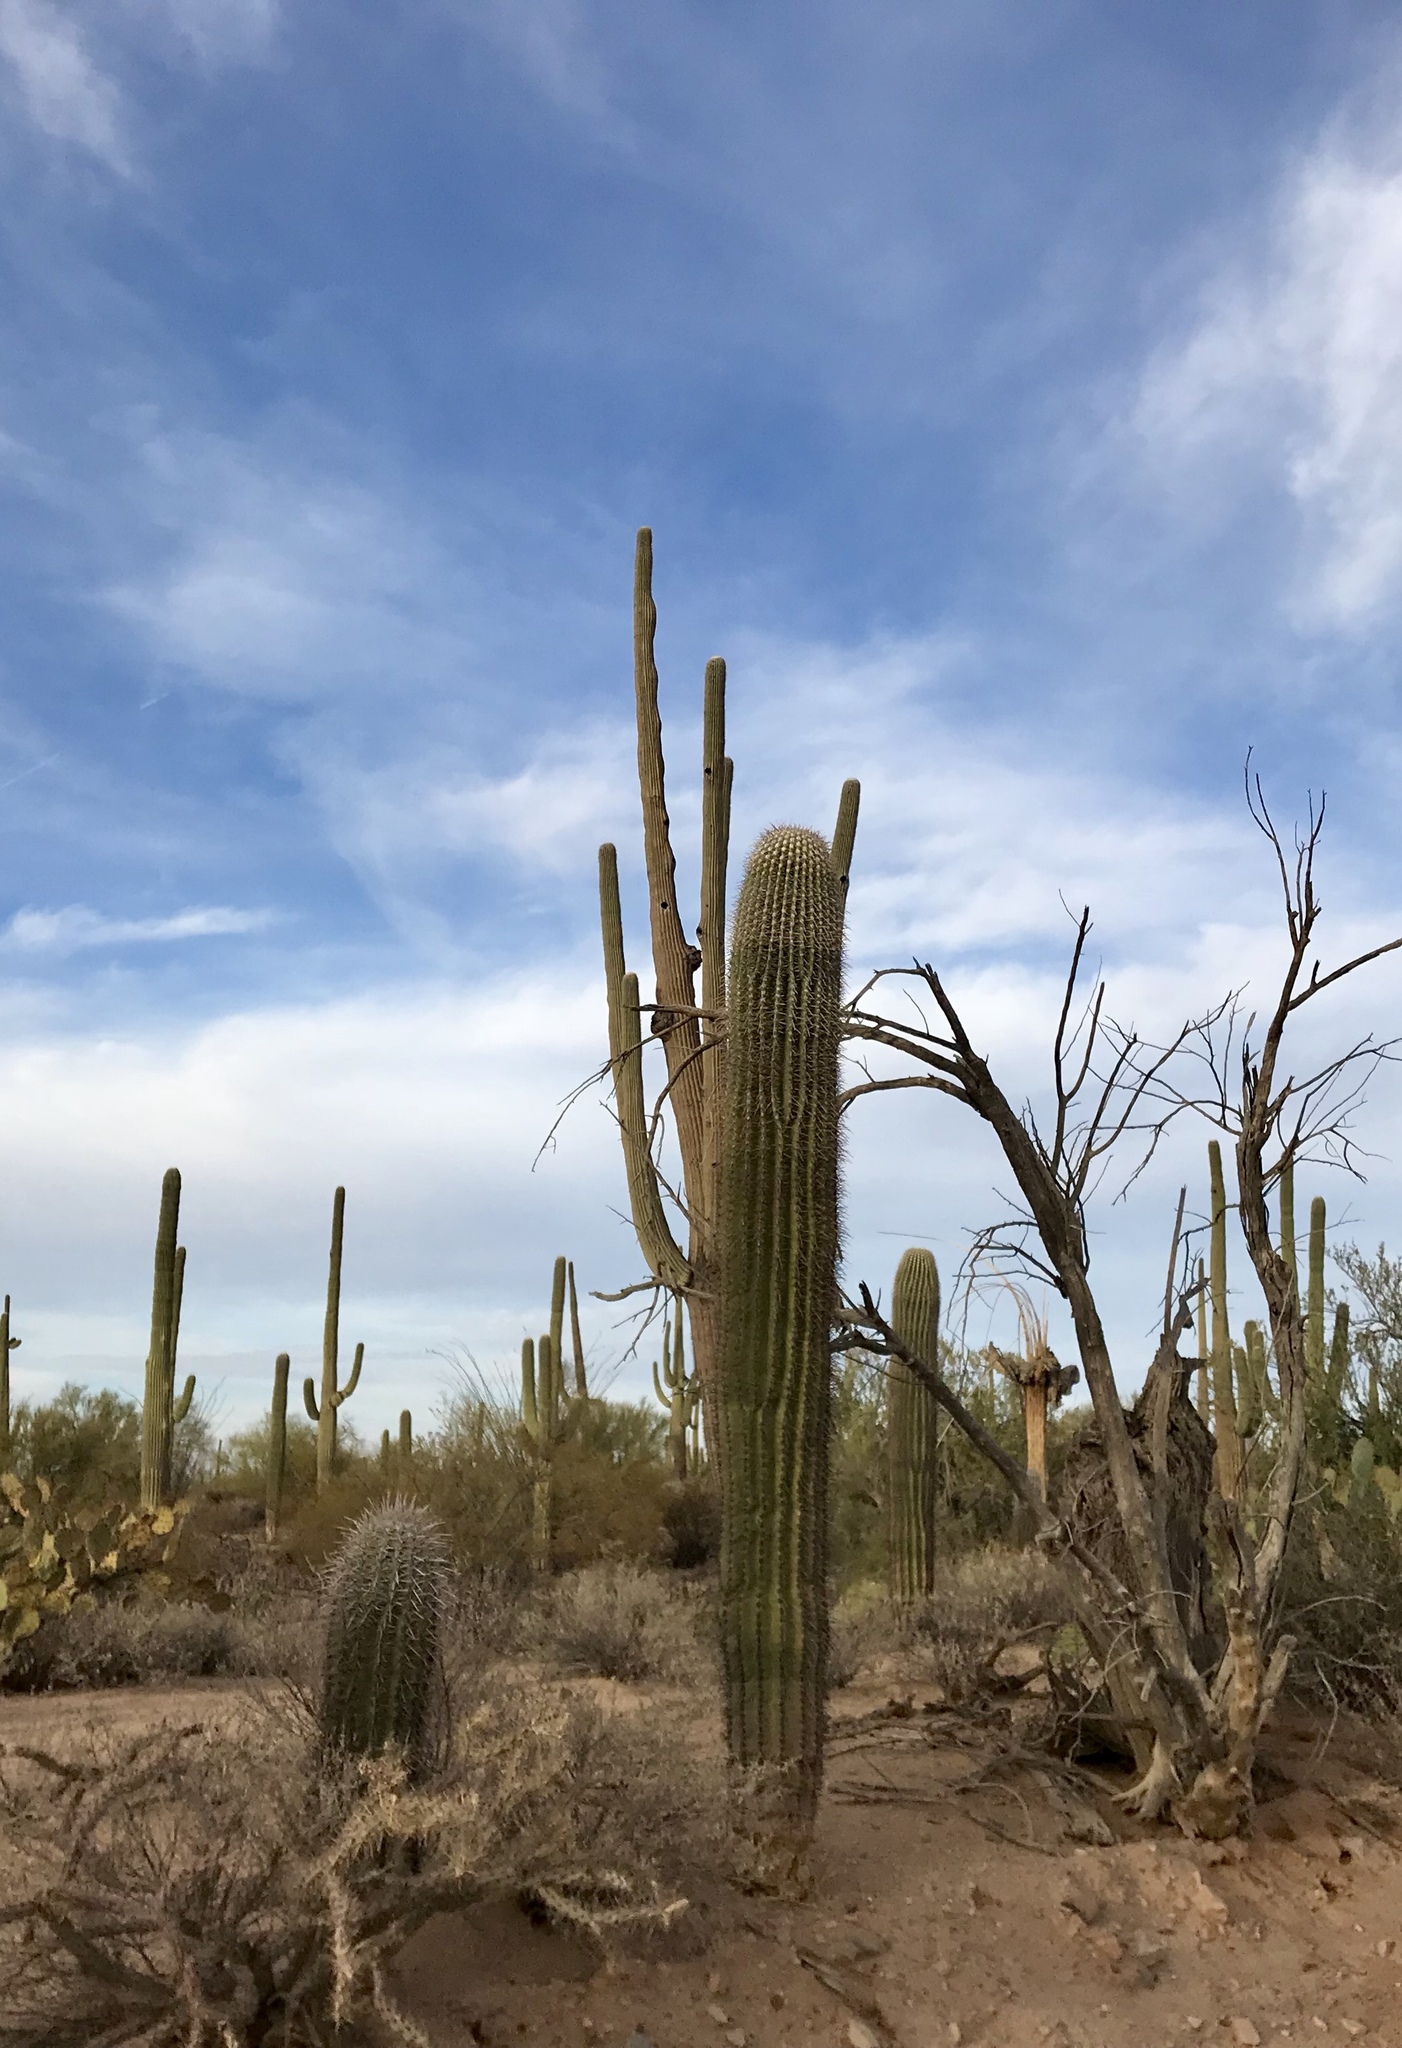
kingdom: Plantae
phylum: Tracheophyta
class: Magnoliopsida
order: Caryophyllales
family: Cactaceae
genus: Carnegiea
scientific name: Carnegiea gigantea
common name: Saguaro
